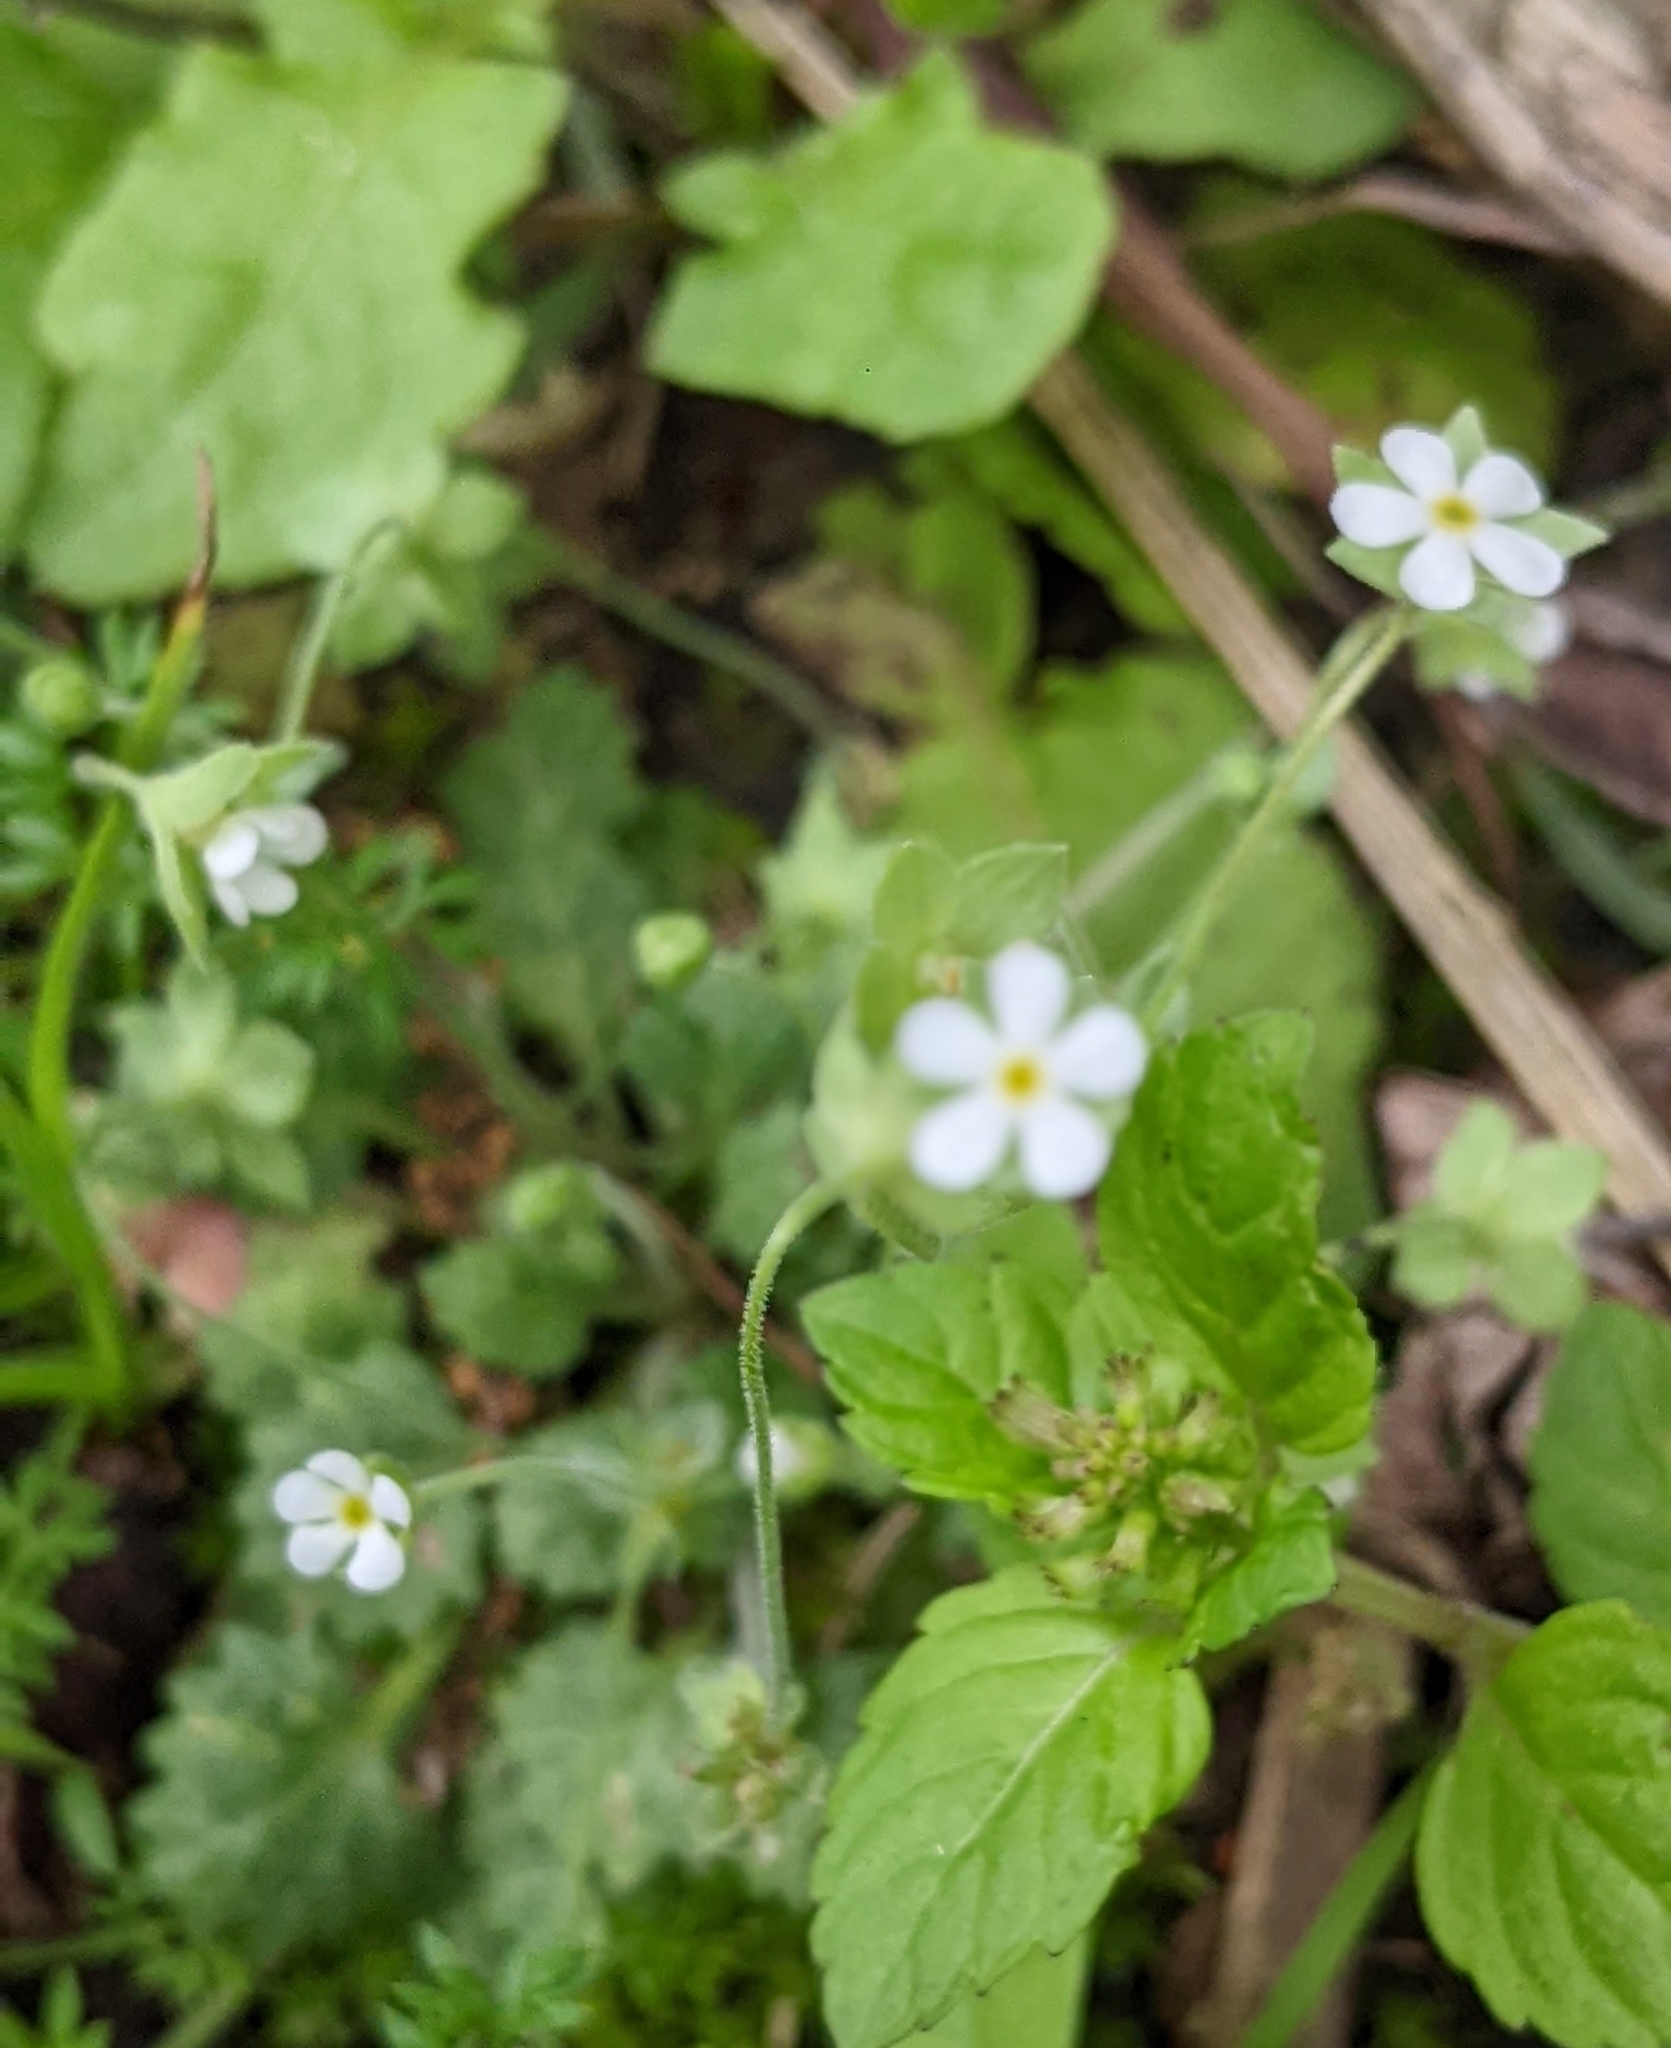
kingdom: Plantae
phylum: Tracheophyta
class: Magnoliopsida
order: Ericales
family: Primulaceae
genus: Androsace
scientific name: Androsace umbellata
